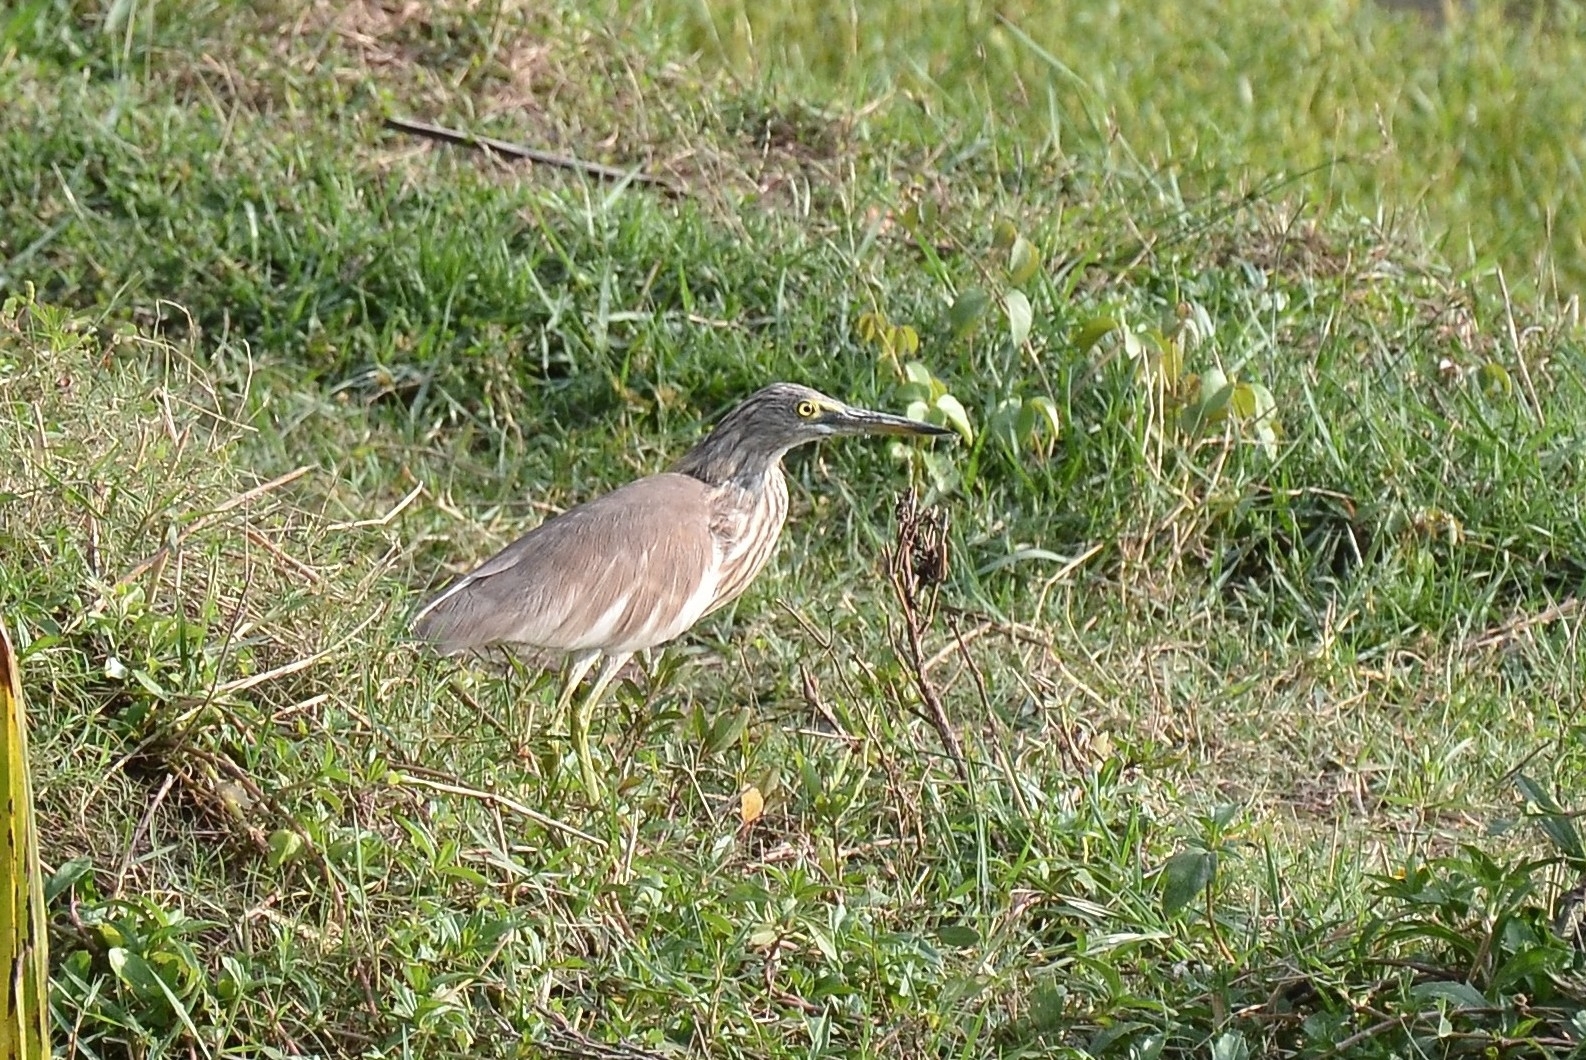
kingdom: Animalia
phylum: Chordata
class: Aves
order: Pelecaniformes
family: Ardeidae
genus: Ardeola
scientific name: Ardeola grayii
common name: Indian pond heron
